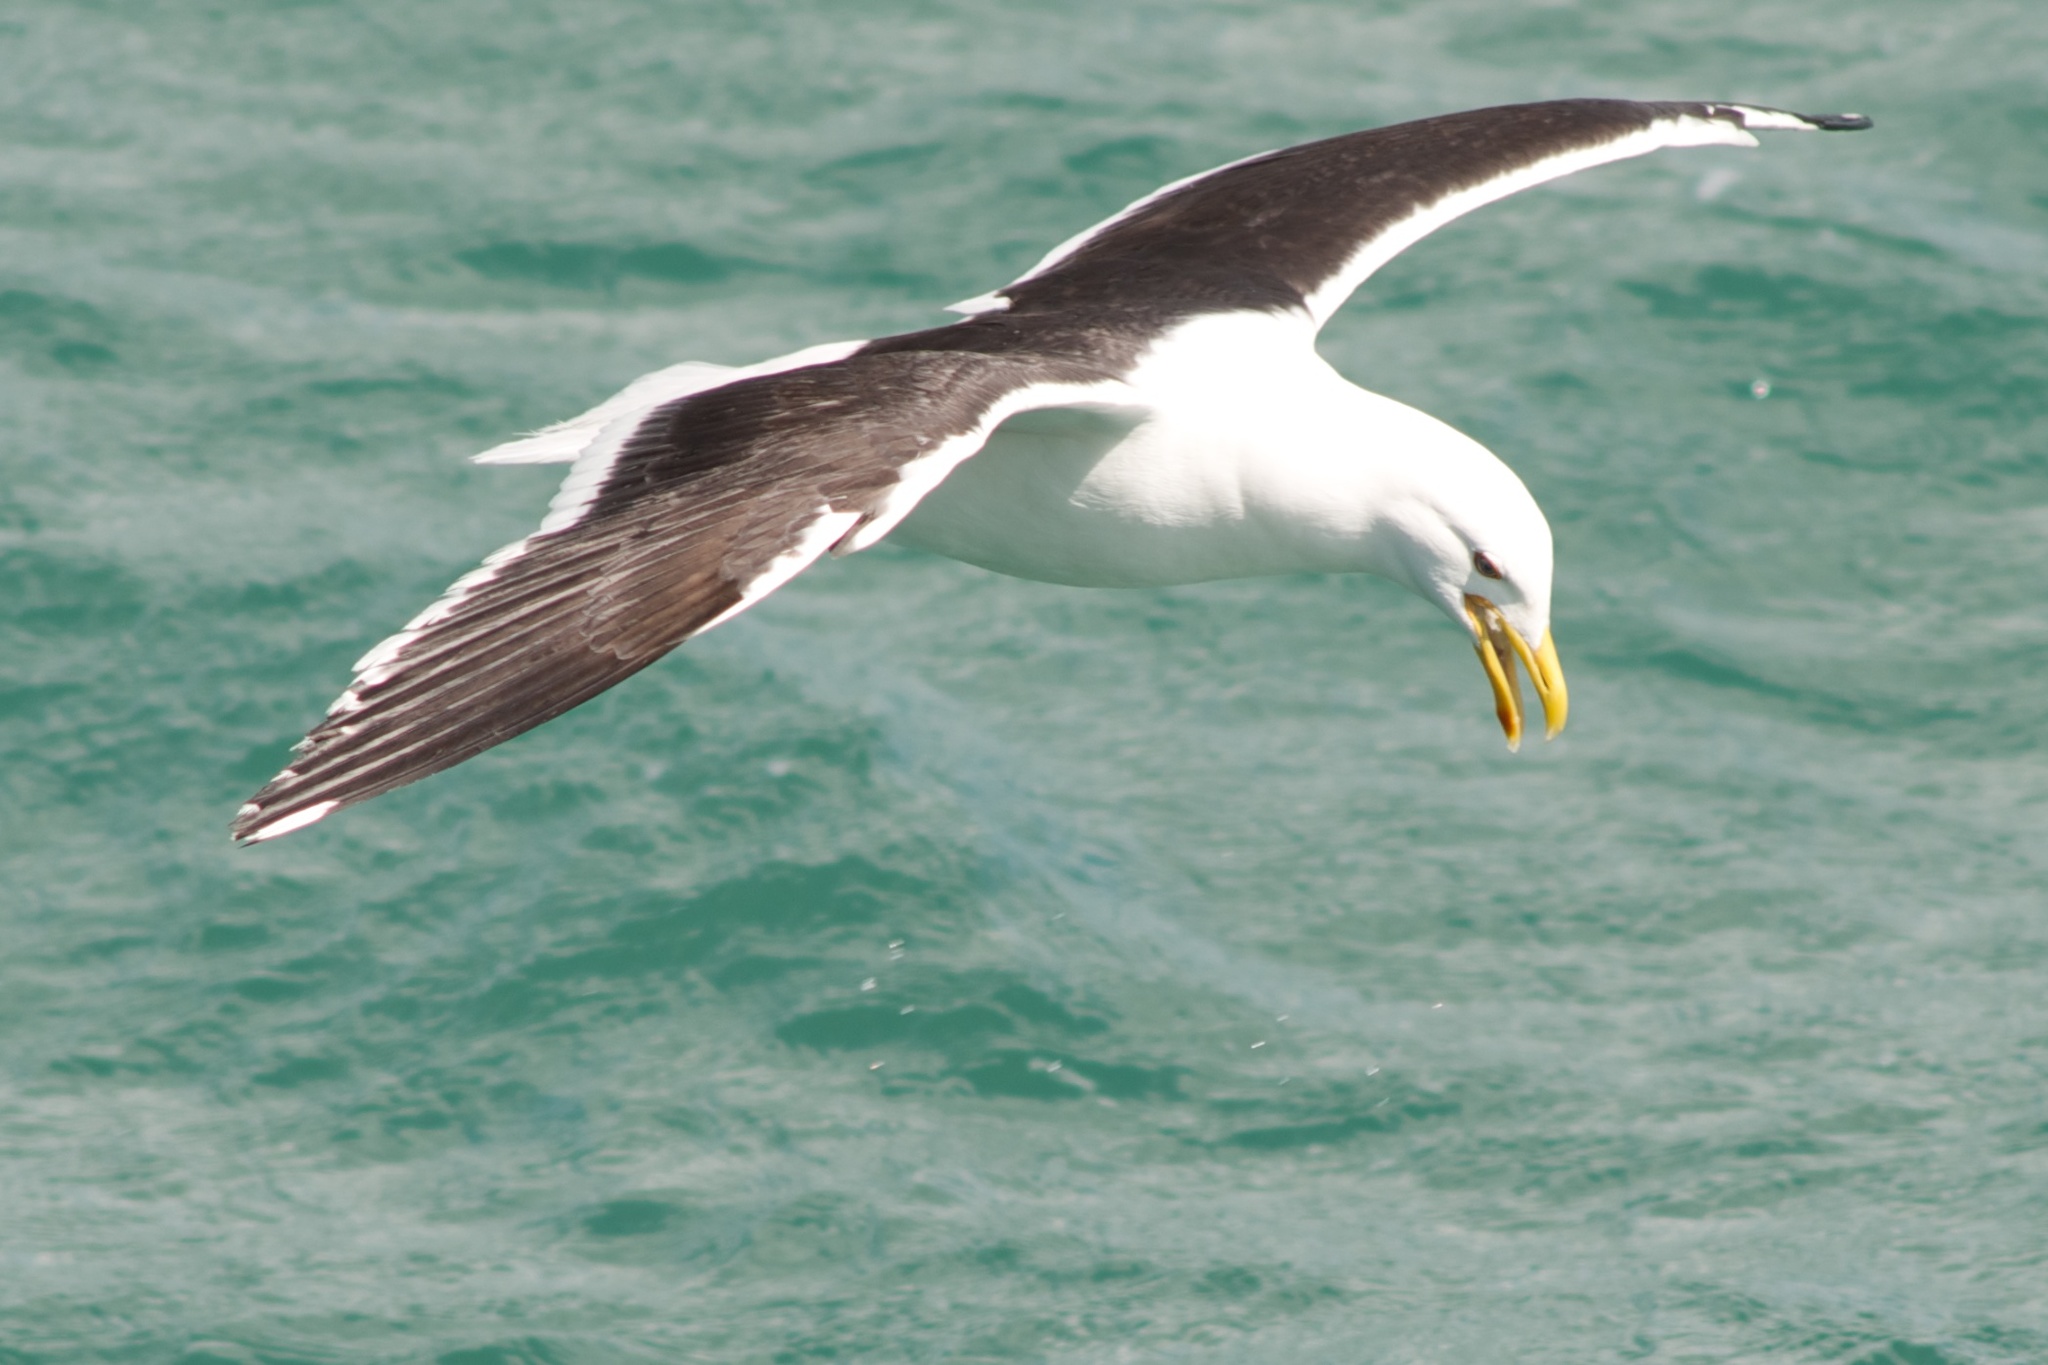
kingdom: Animalia
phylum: Chordata
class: Aves
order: Charadriiformes
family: Laridae
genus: Larus
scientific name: Larus dominicanus
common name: Kelp gull
